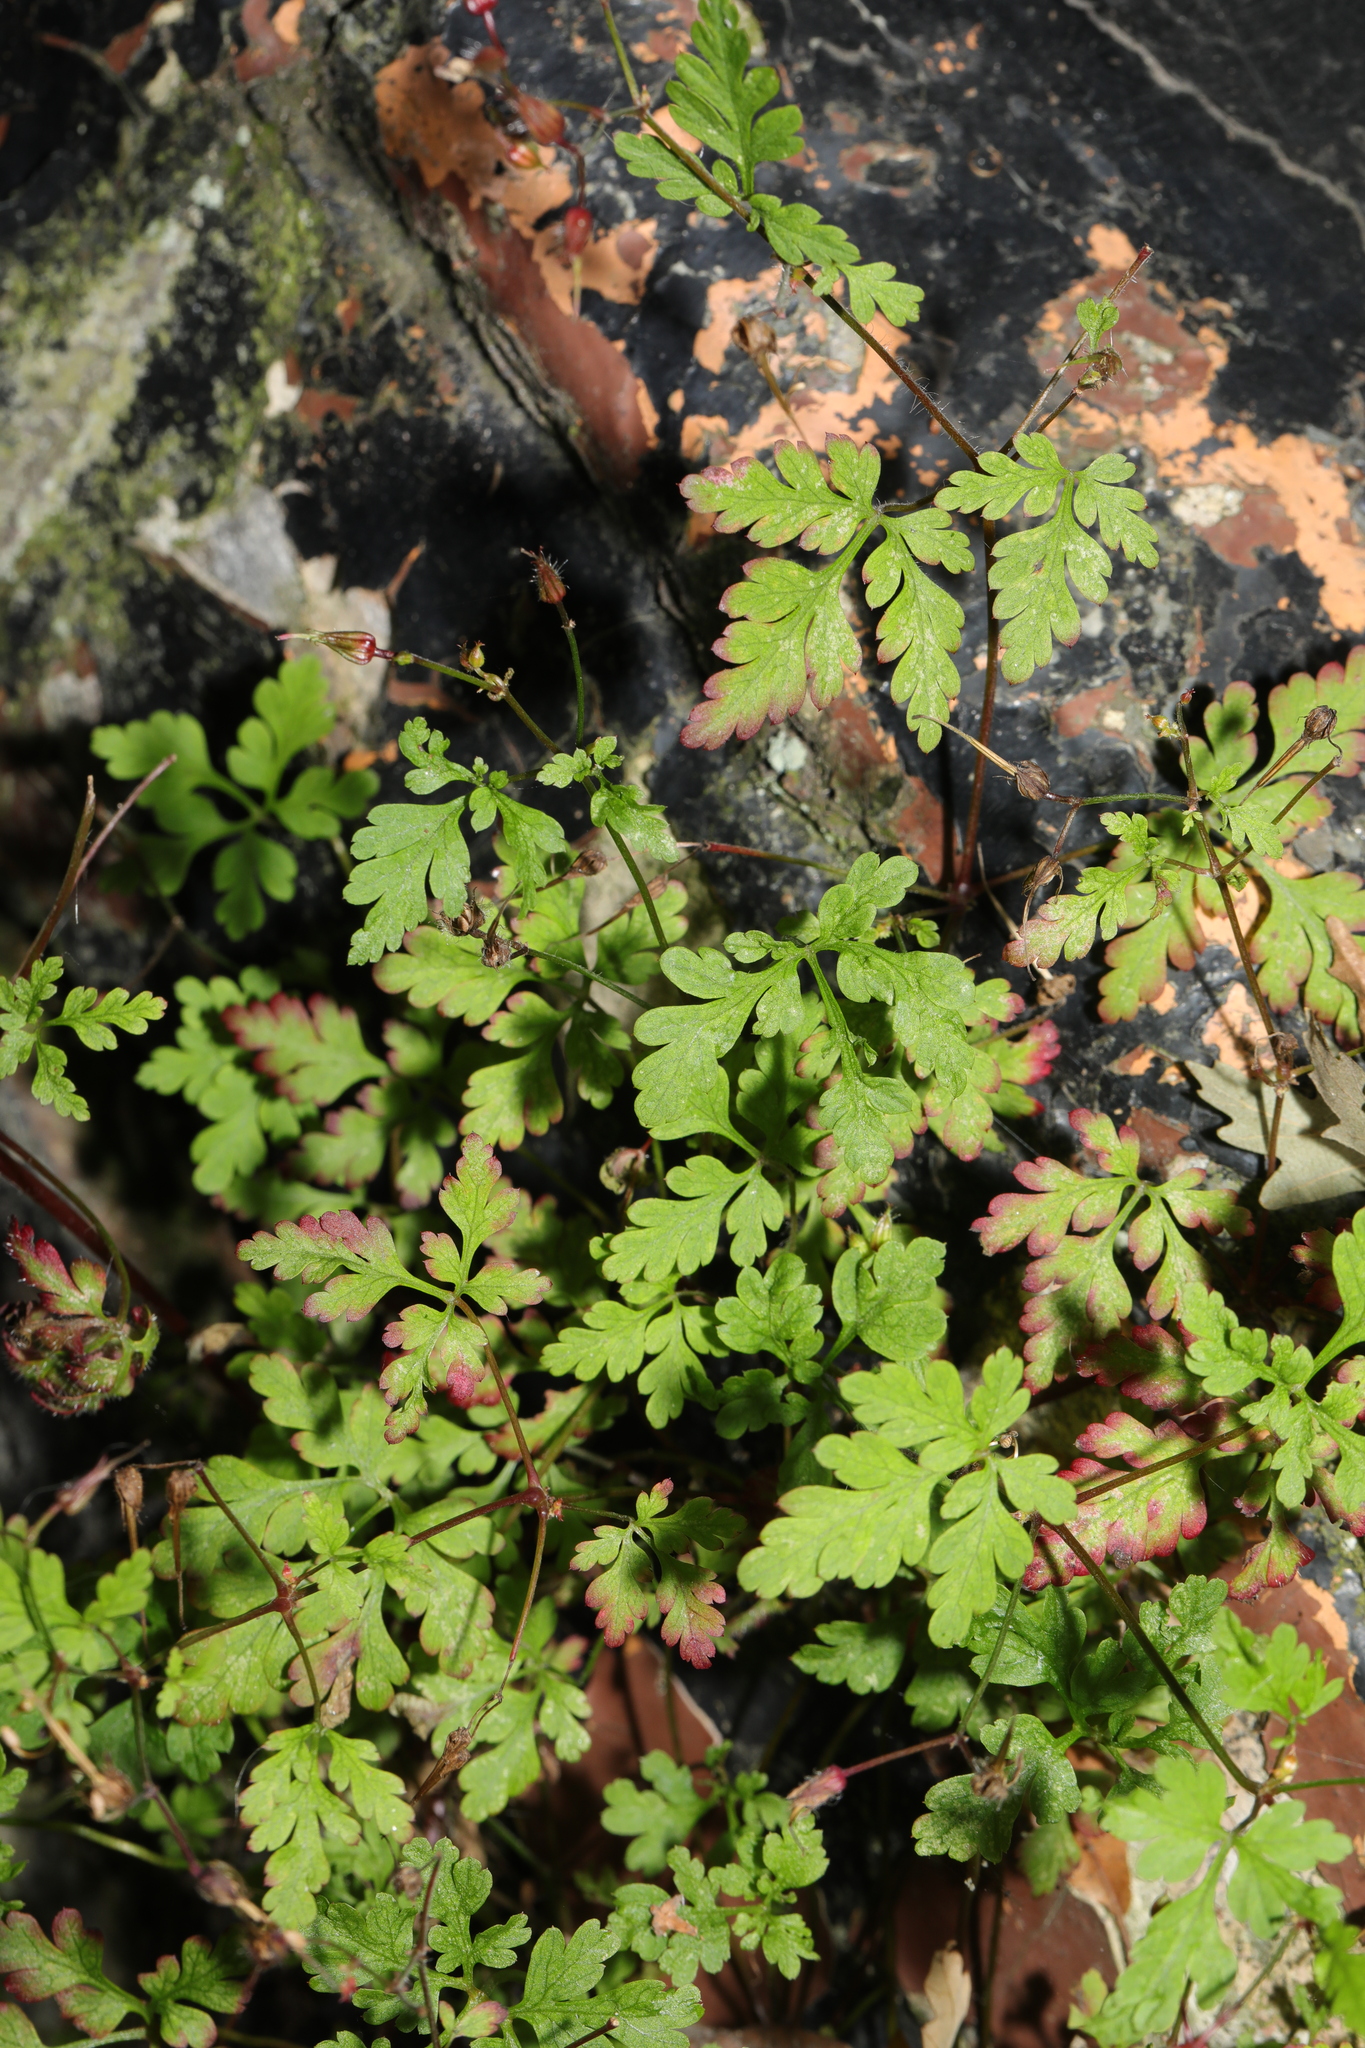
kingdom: Plantae
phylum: Tracheophyta
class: Magnoliopsida
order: Geraniales
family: Geraniaceae
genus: Geranium
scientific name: Geranium robertianum
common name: Herb-robert
